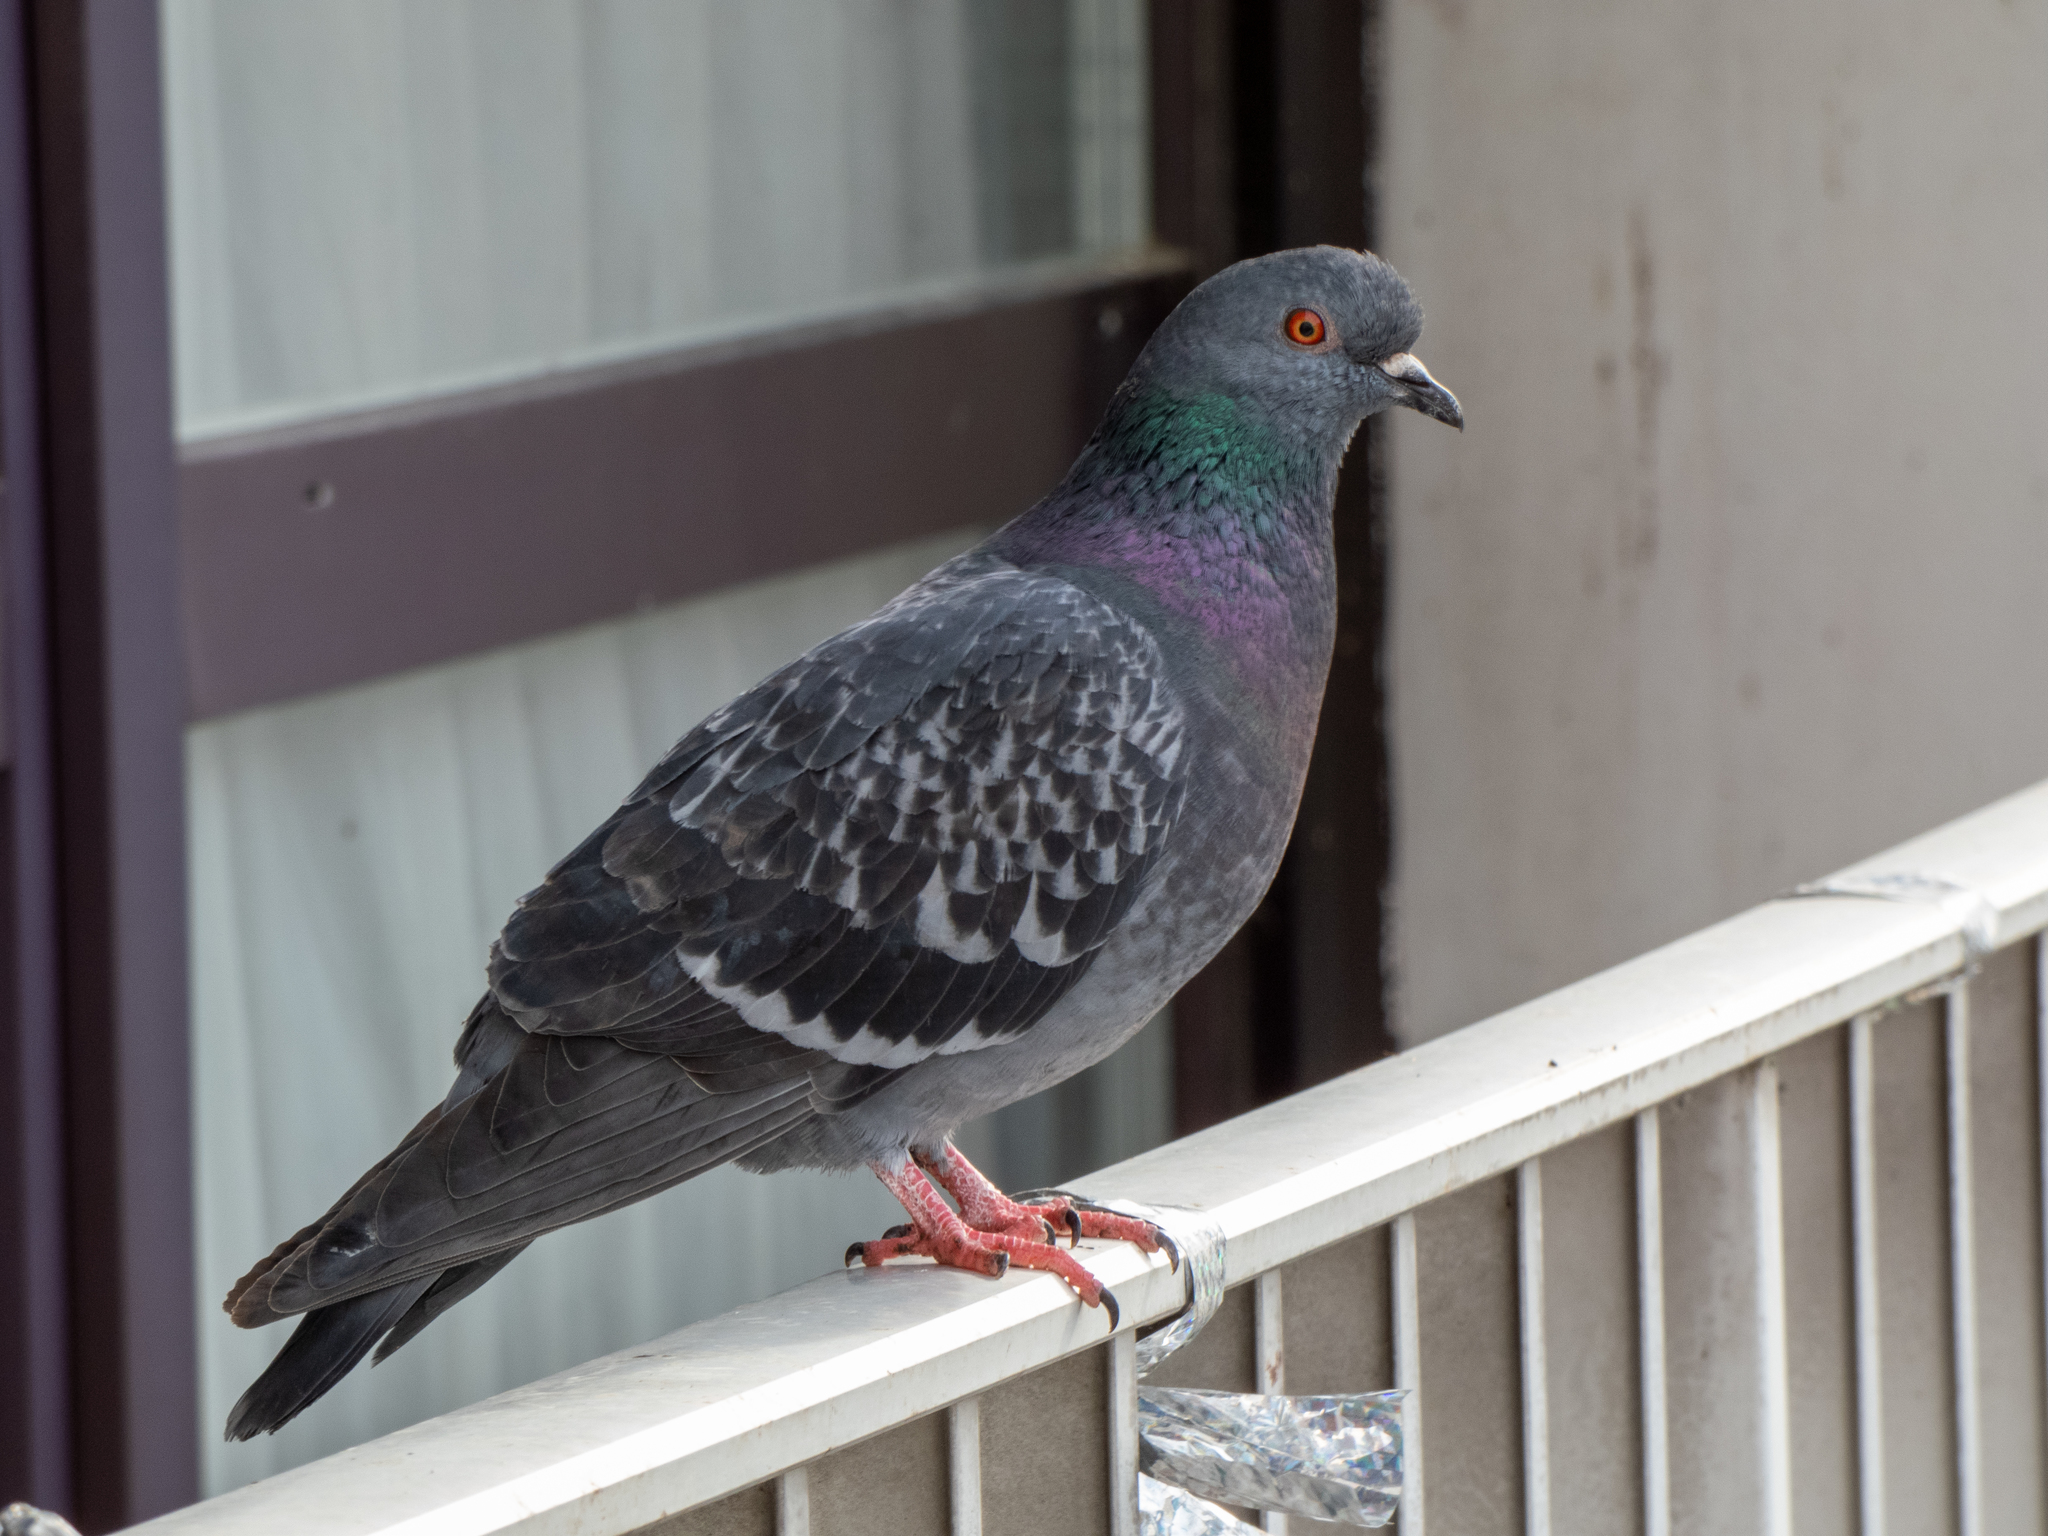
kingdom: Animalia
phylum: Chordata
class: Aves
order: Columbiformes
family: Columbidae
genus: Columba
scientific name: Columba livia
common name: Rock pigeon
